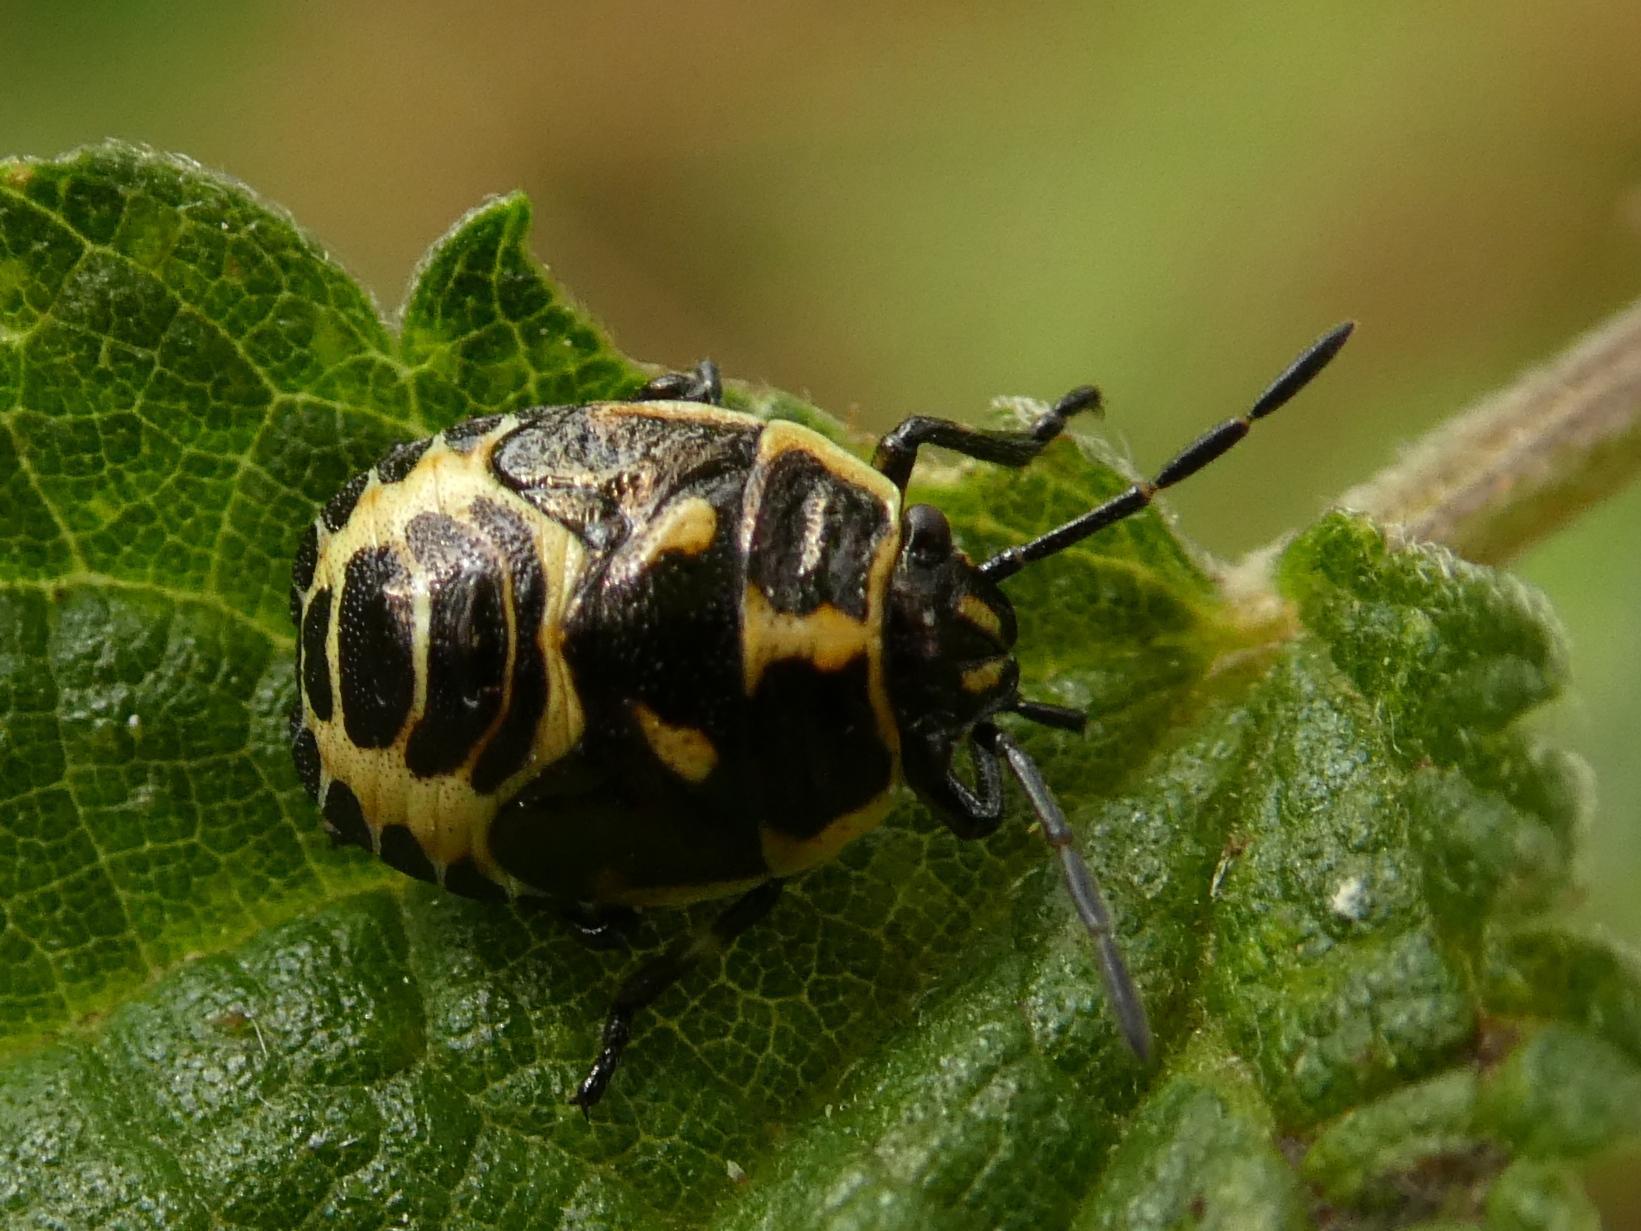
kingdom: Animalia
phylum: Arthropoda
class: Insecta
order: Hemiptera
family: Pentatomidae
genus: Eurydema
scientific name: Eurydema oleracea
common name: Cabbage bug
